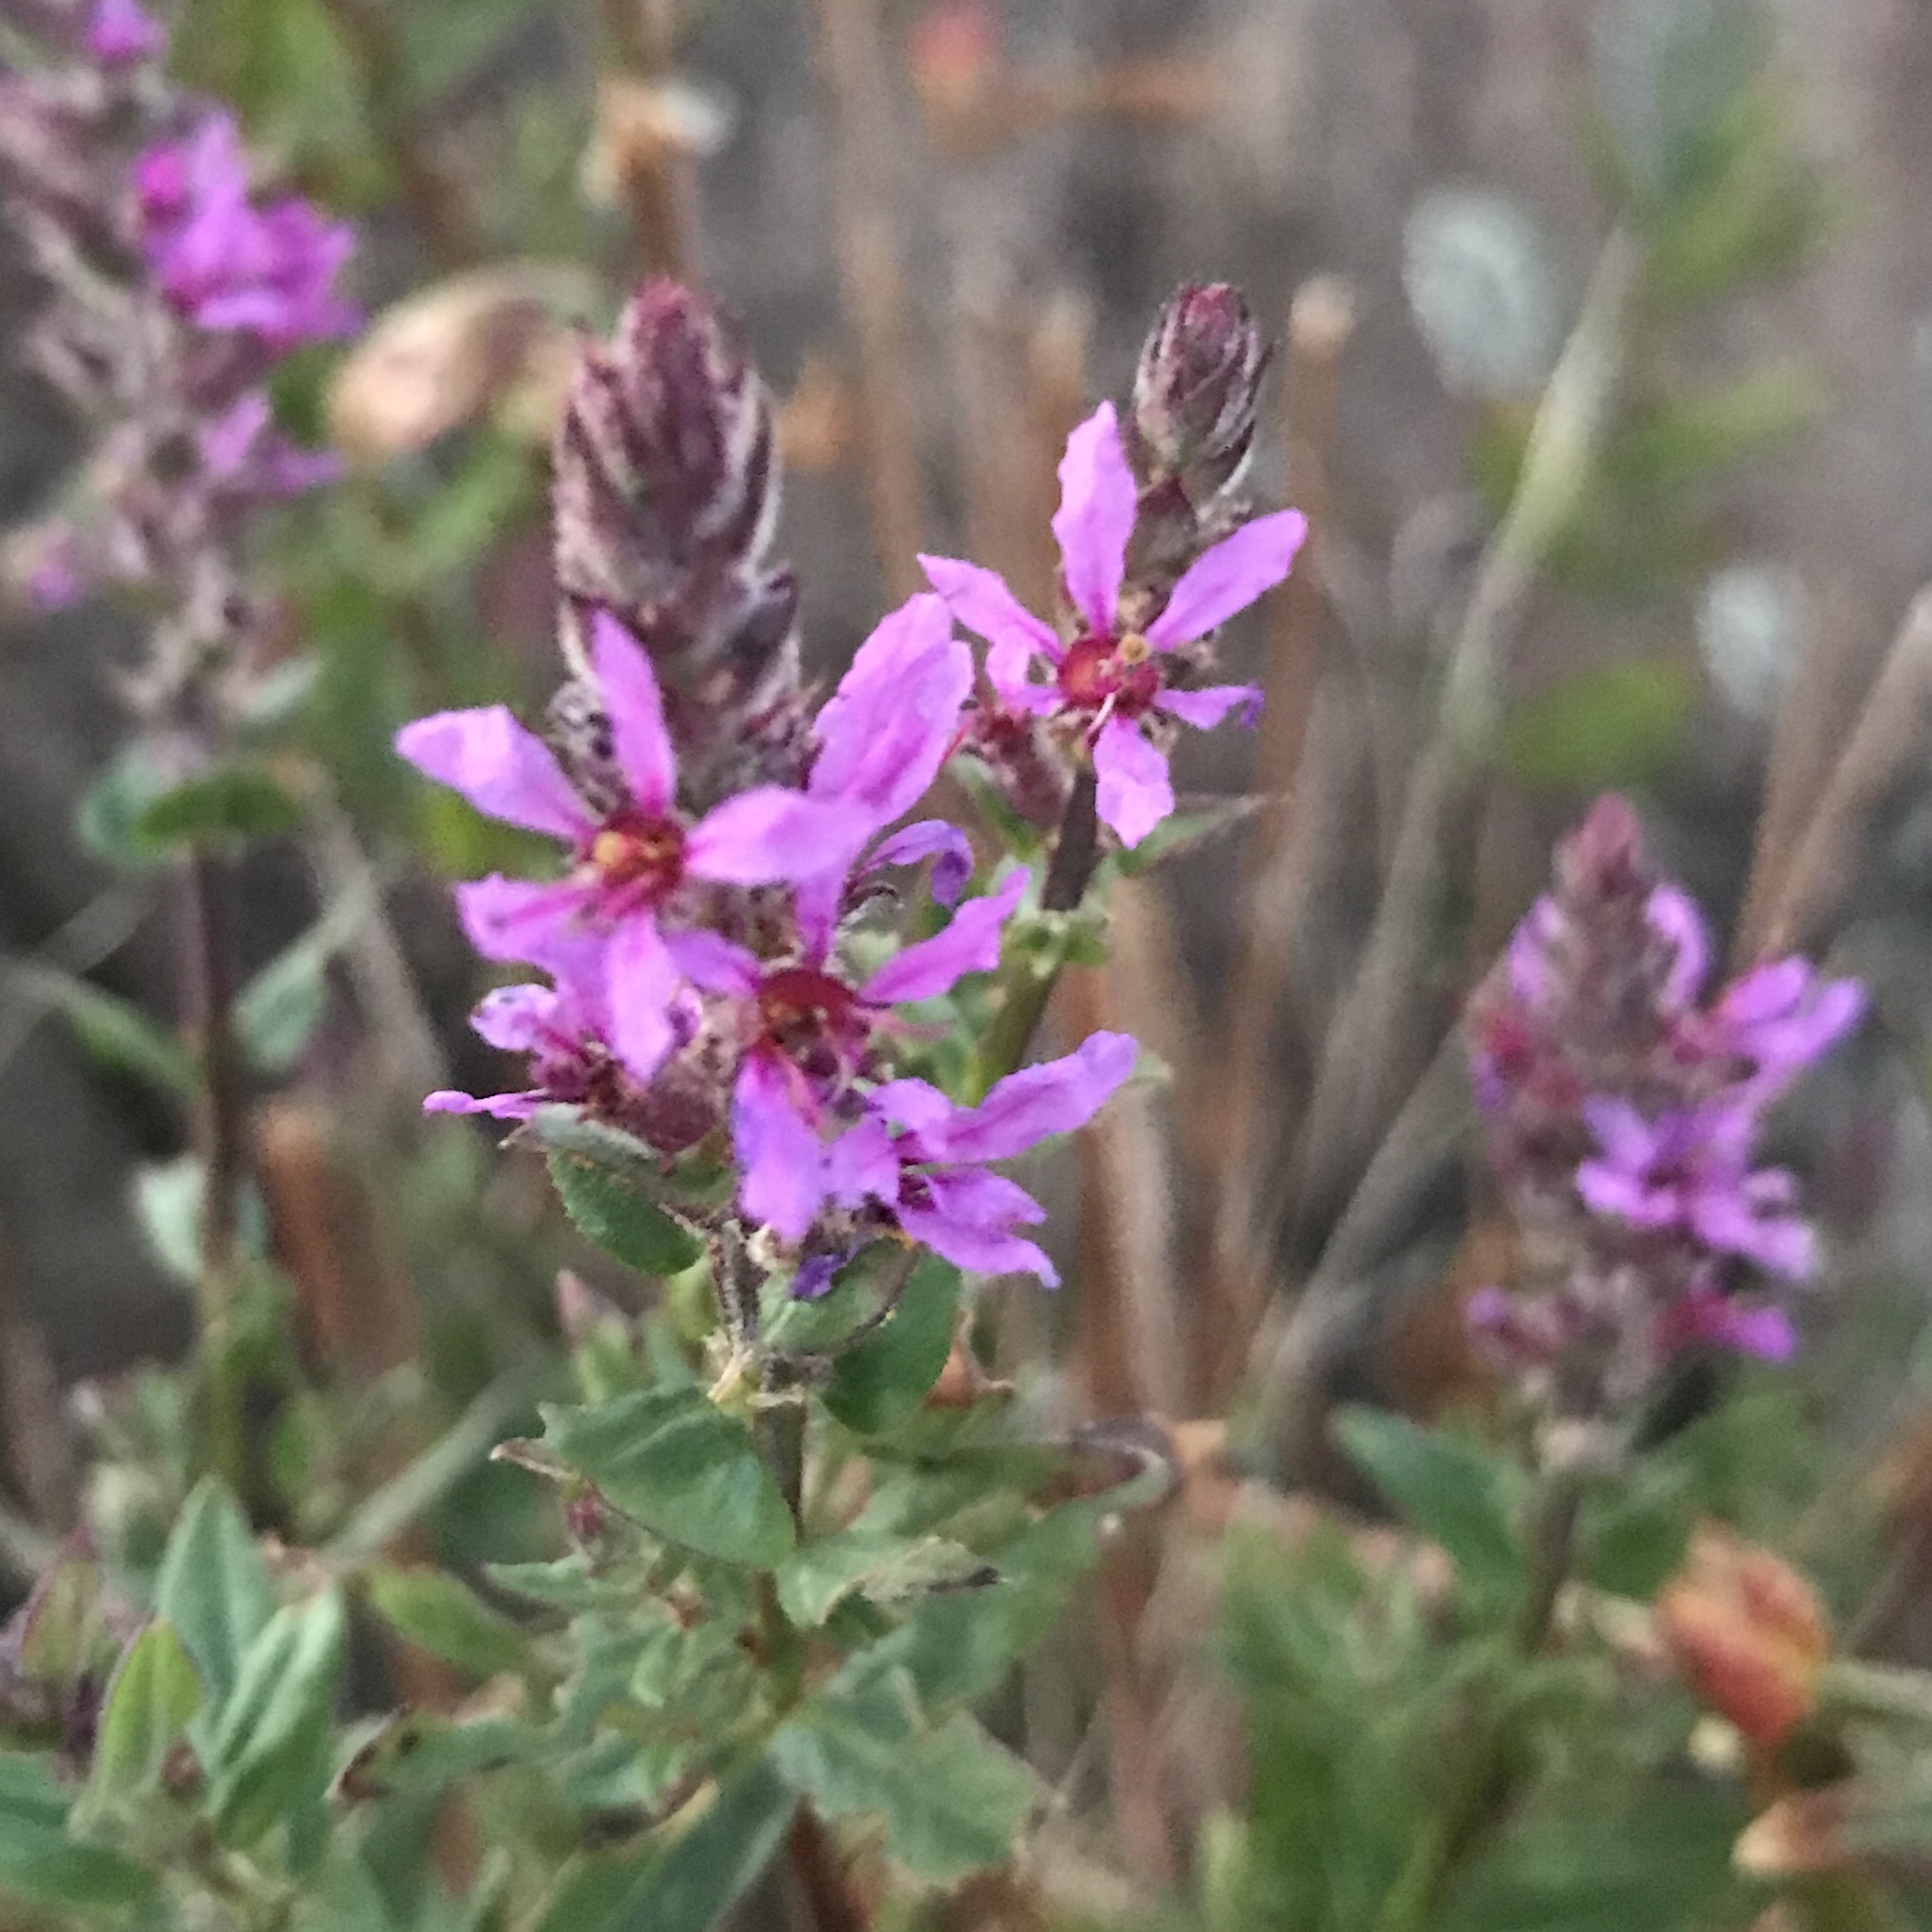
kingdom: Plantae
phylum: Tracheophyta
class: Magnoliopsida
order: Myrtales
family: Lythraceae
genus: Lythrum
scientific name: Lythrum salicaria
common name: Purple loosestrife
